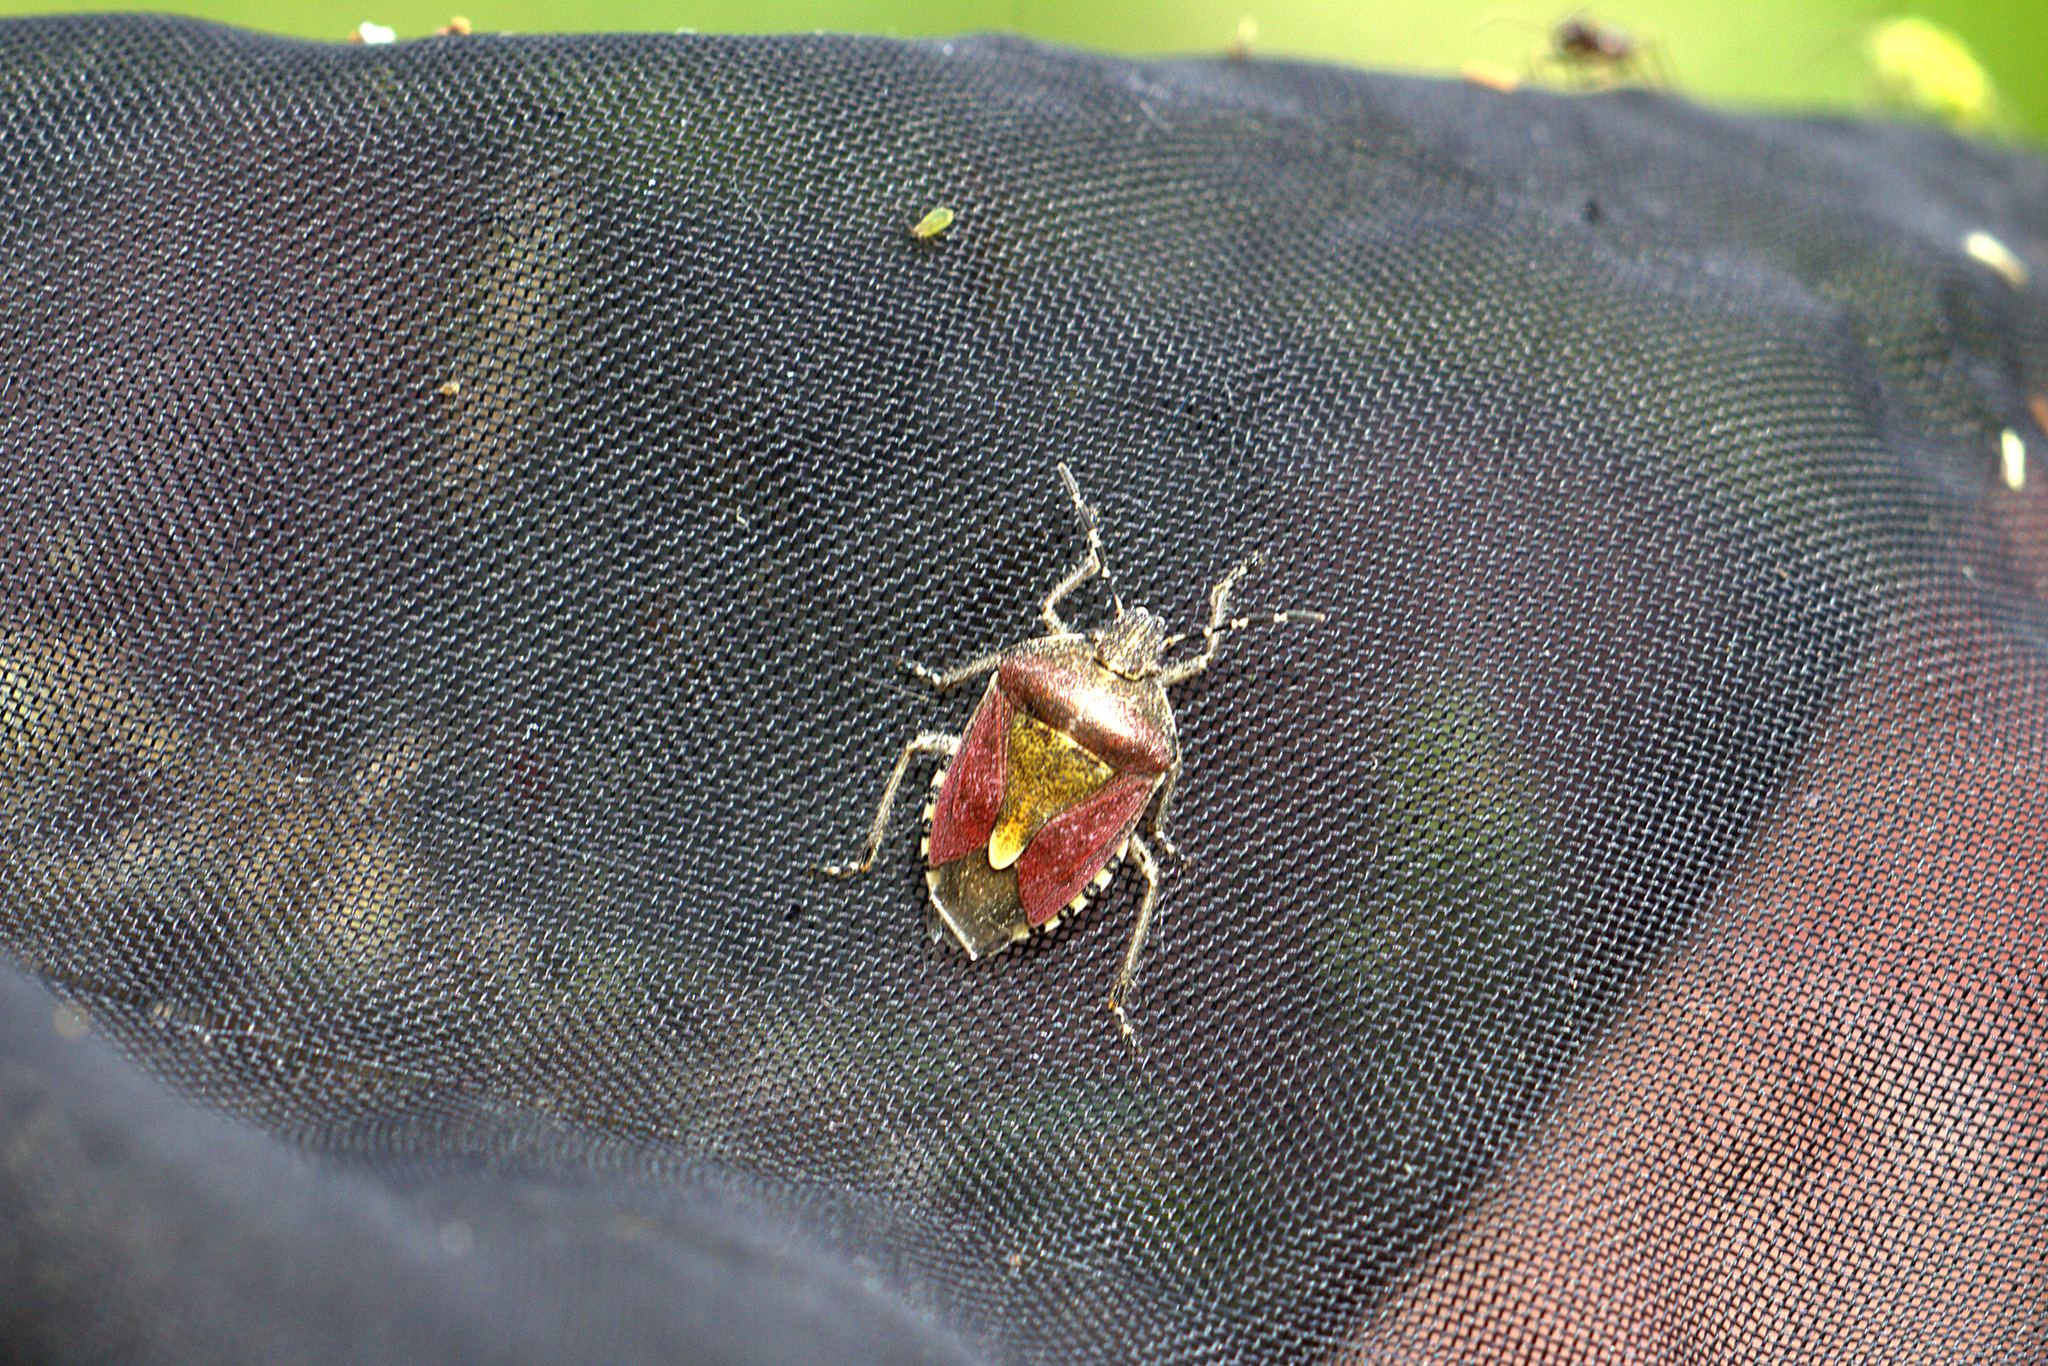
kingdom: Animalia
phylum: Arthropoda
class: Insecta
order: Hemiptera
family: Pentatomidae
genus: Dolycoris
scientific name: Dolycoris baccarum
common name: Sloe bug
